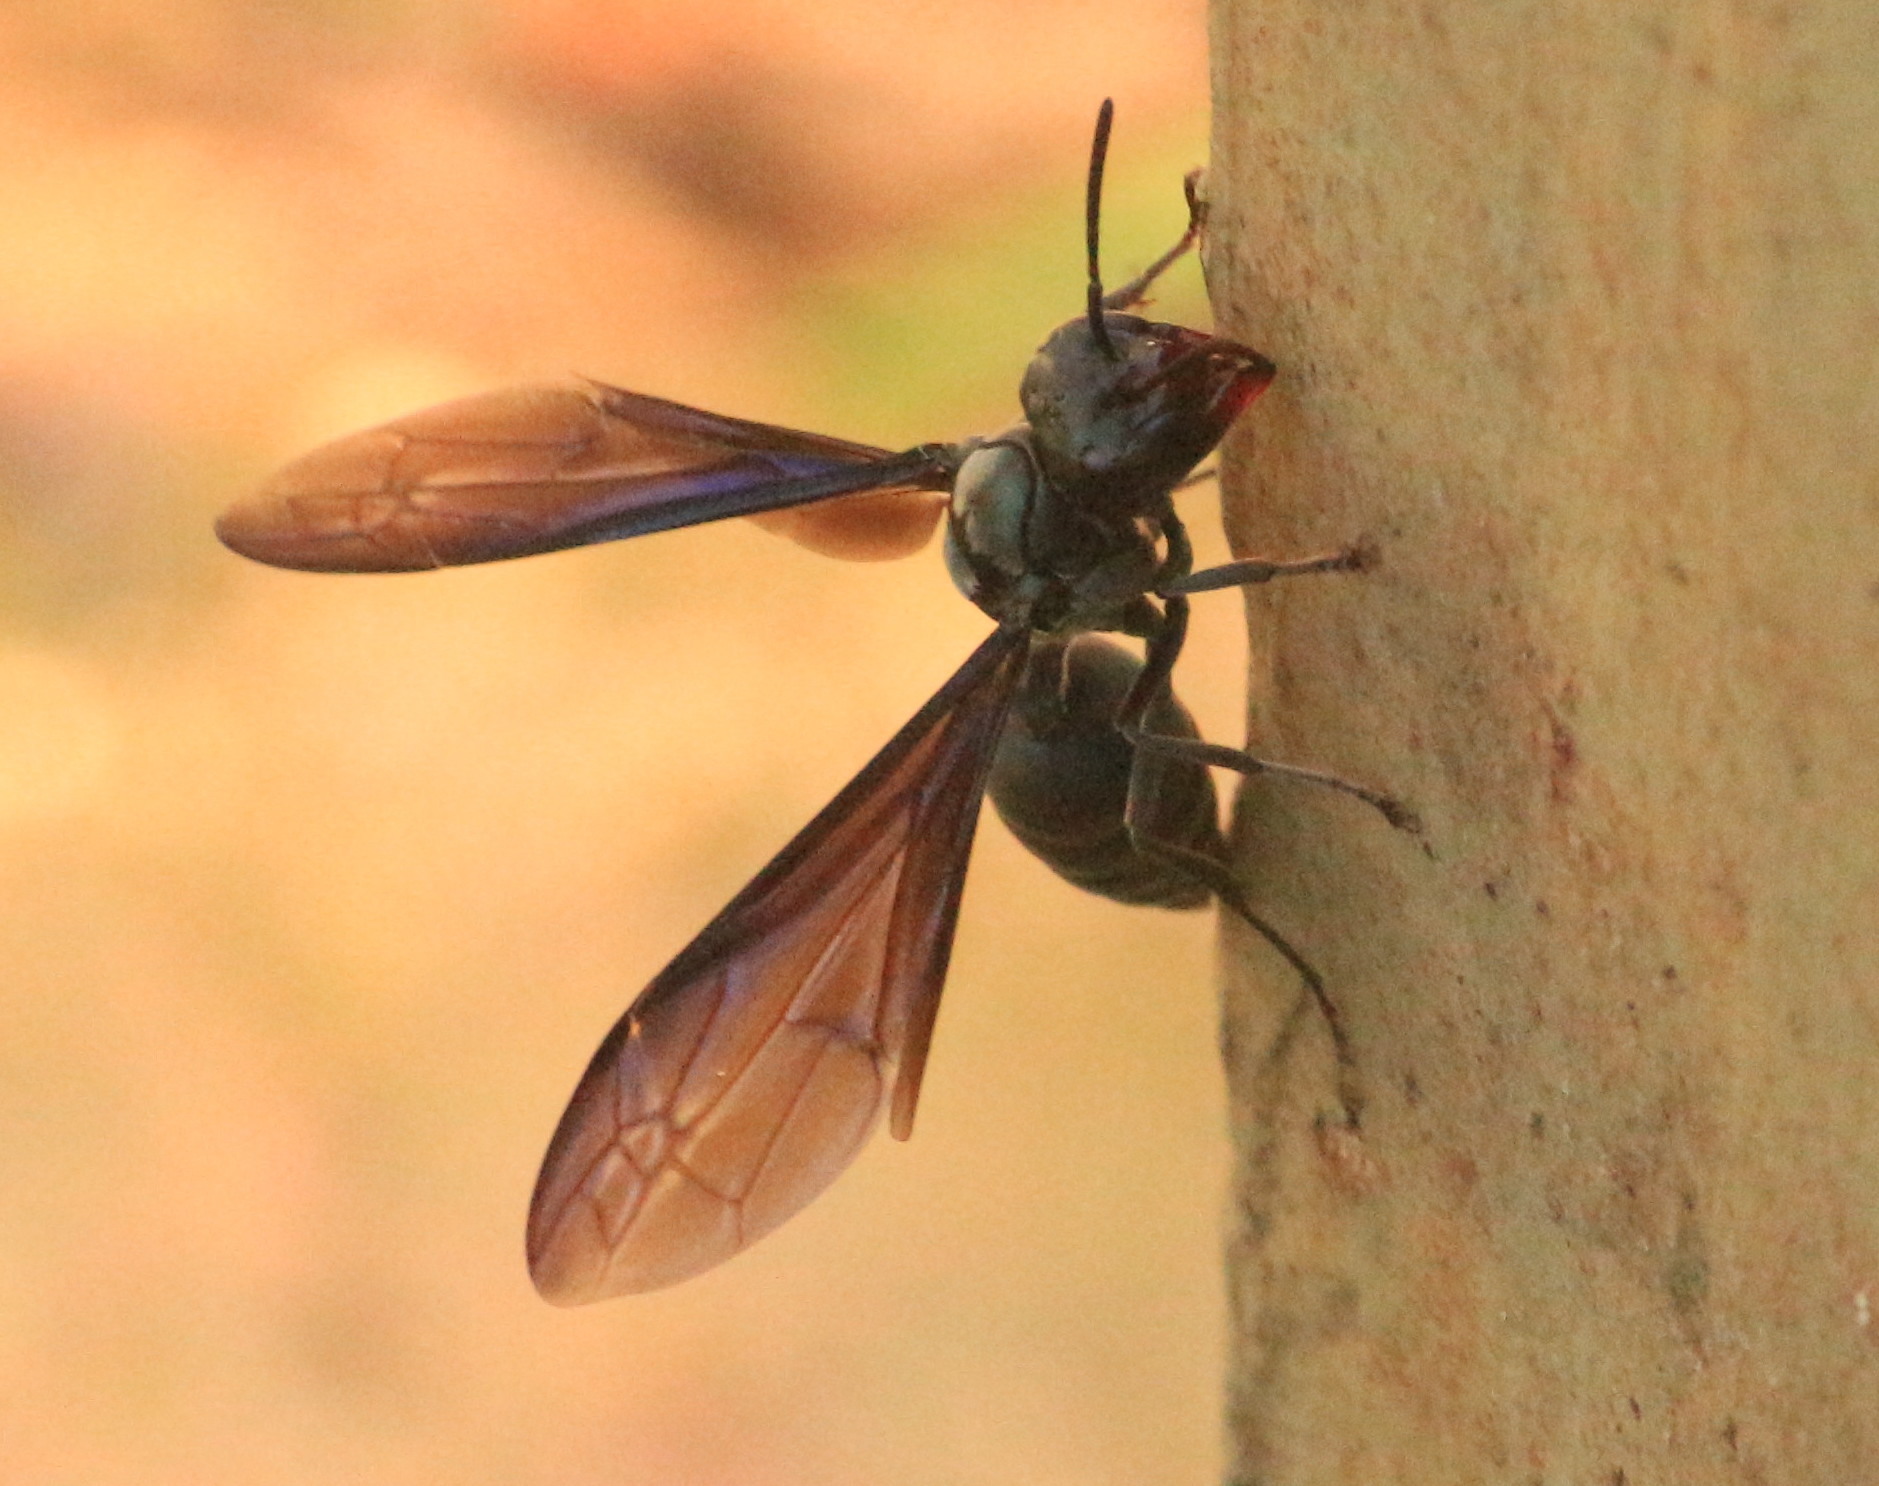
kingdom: Animalia
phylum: Arthropoda
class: Insecta
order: Hymenoptera
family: Vespidae
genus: Synoeca
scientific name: Synoeca cyanea
